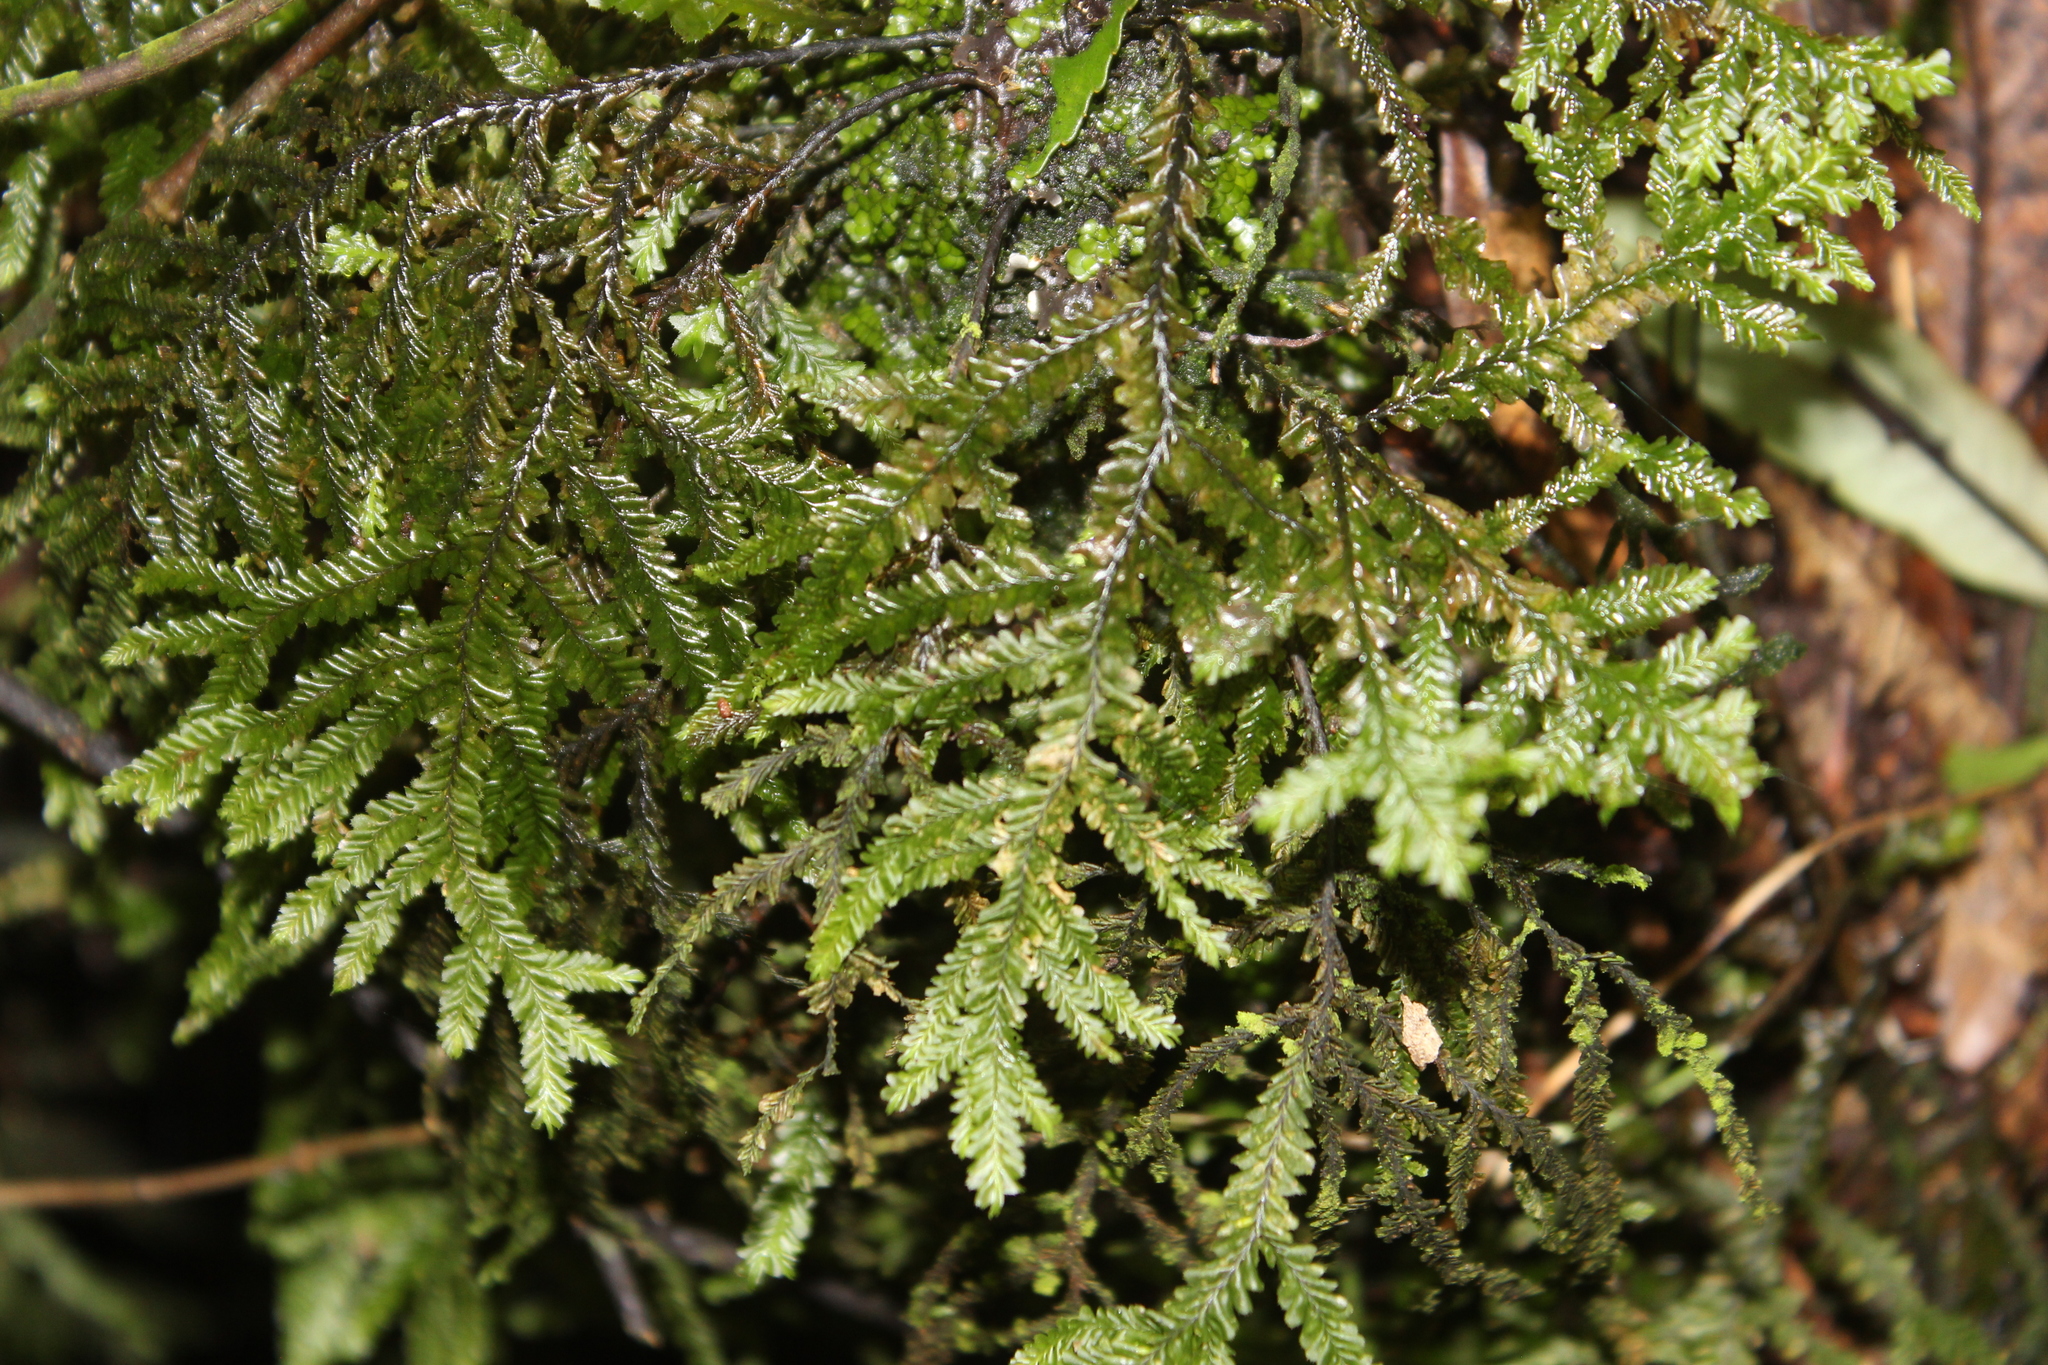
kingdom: Plantae
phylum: Marchantiophyta
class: Jungermanniopsida
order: Jungermanniales
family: Plagiochilaceae
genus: Plagiochila
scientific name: Plagiochila stephensoniana
